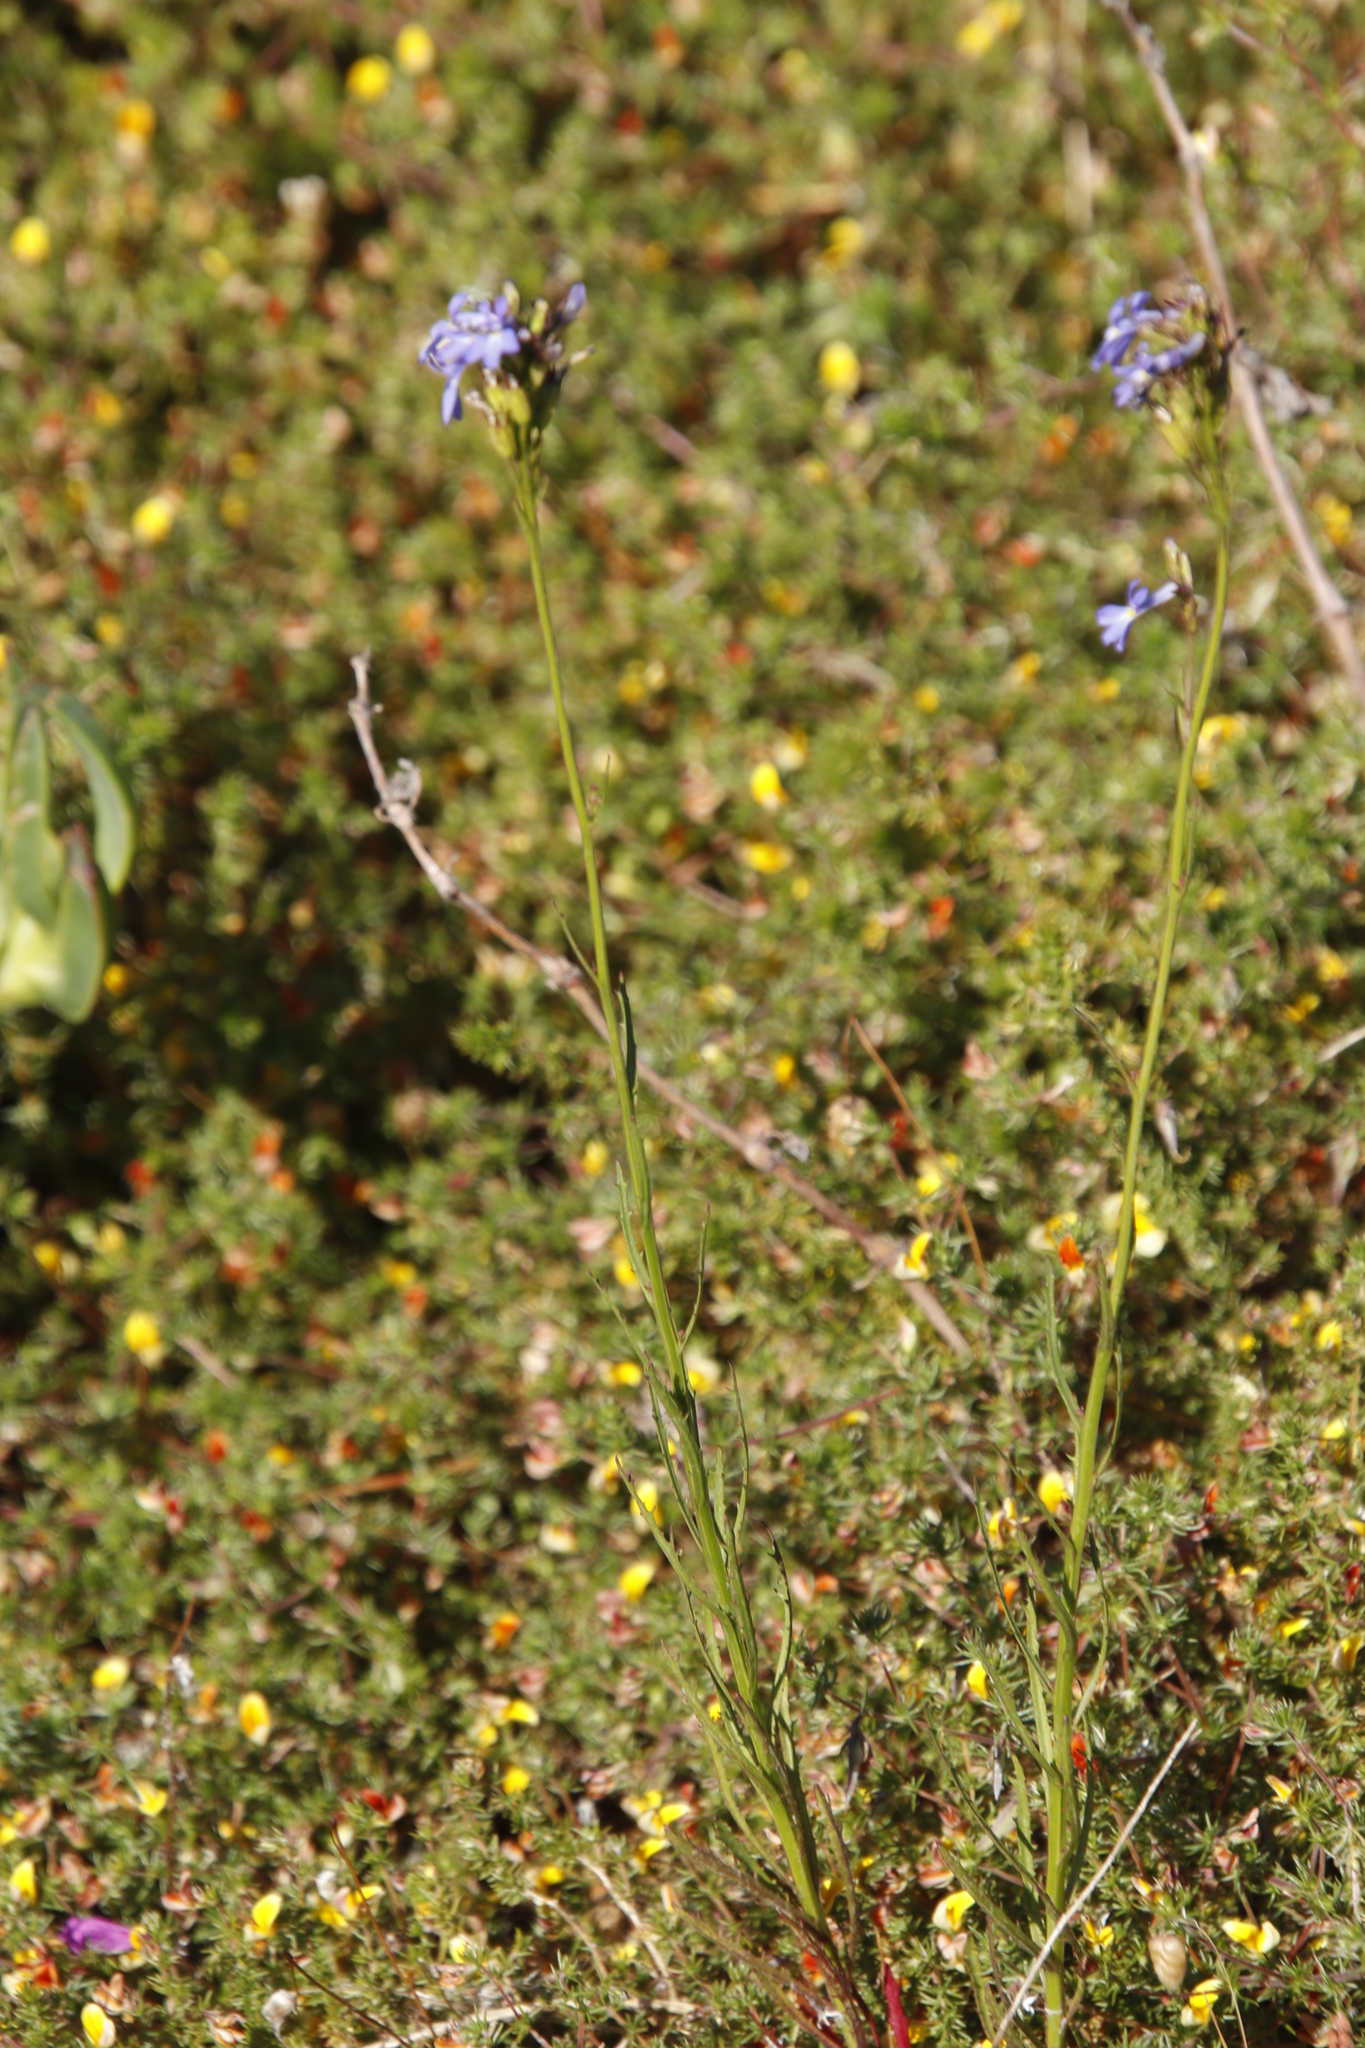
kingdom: Plantae
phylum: Tracheophyta
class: Magnoliopsida
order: Asterales
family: Campanulaceae
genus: Lobelia
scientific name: Lobelia comosa
